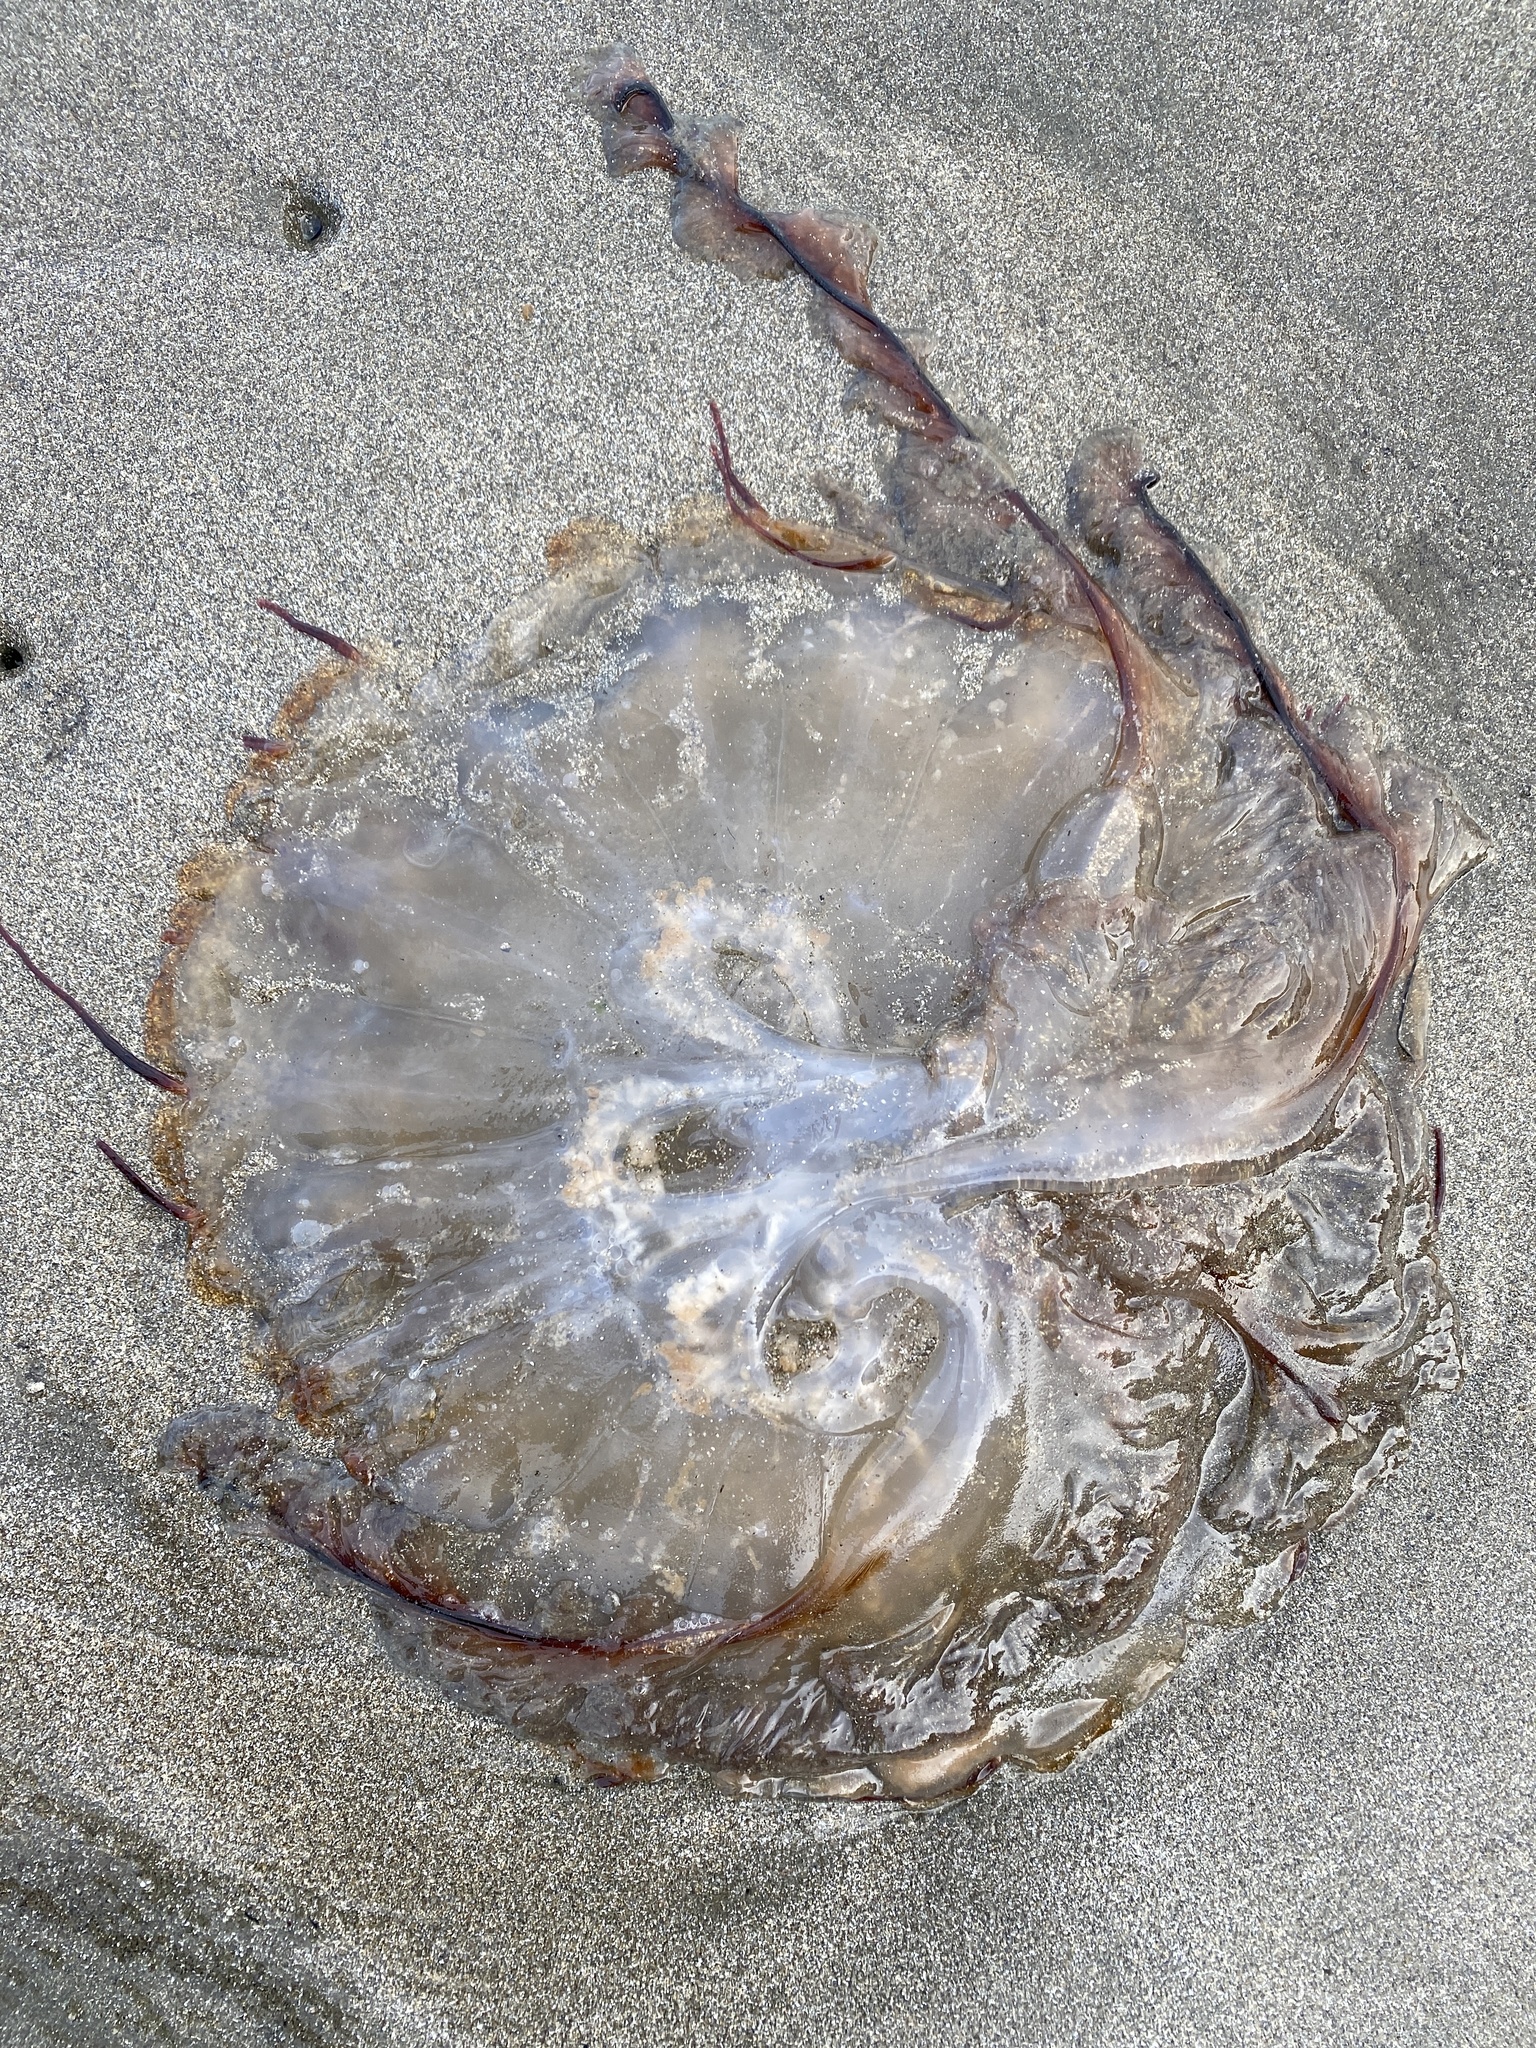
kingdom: Animalia
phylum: Cnidaria
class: Scyphozoa
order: Semaeostomeae
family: Pelagiidae
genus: Chrysaora
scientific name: Chrysaora fuscescens
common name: Sea nettle
